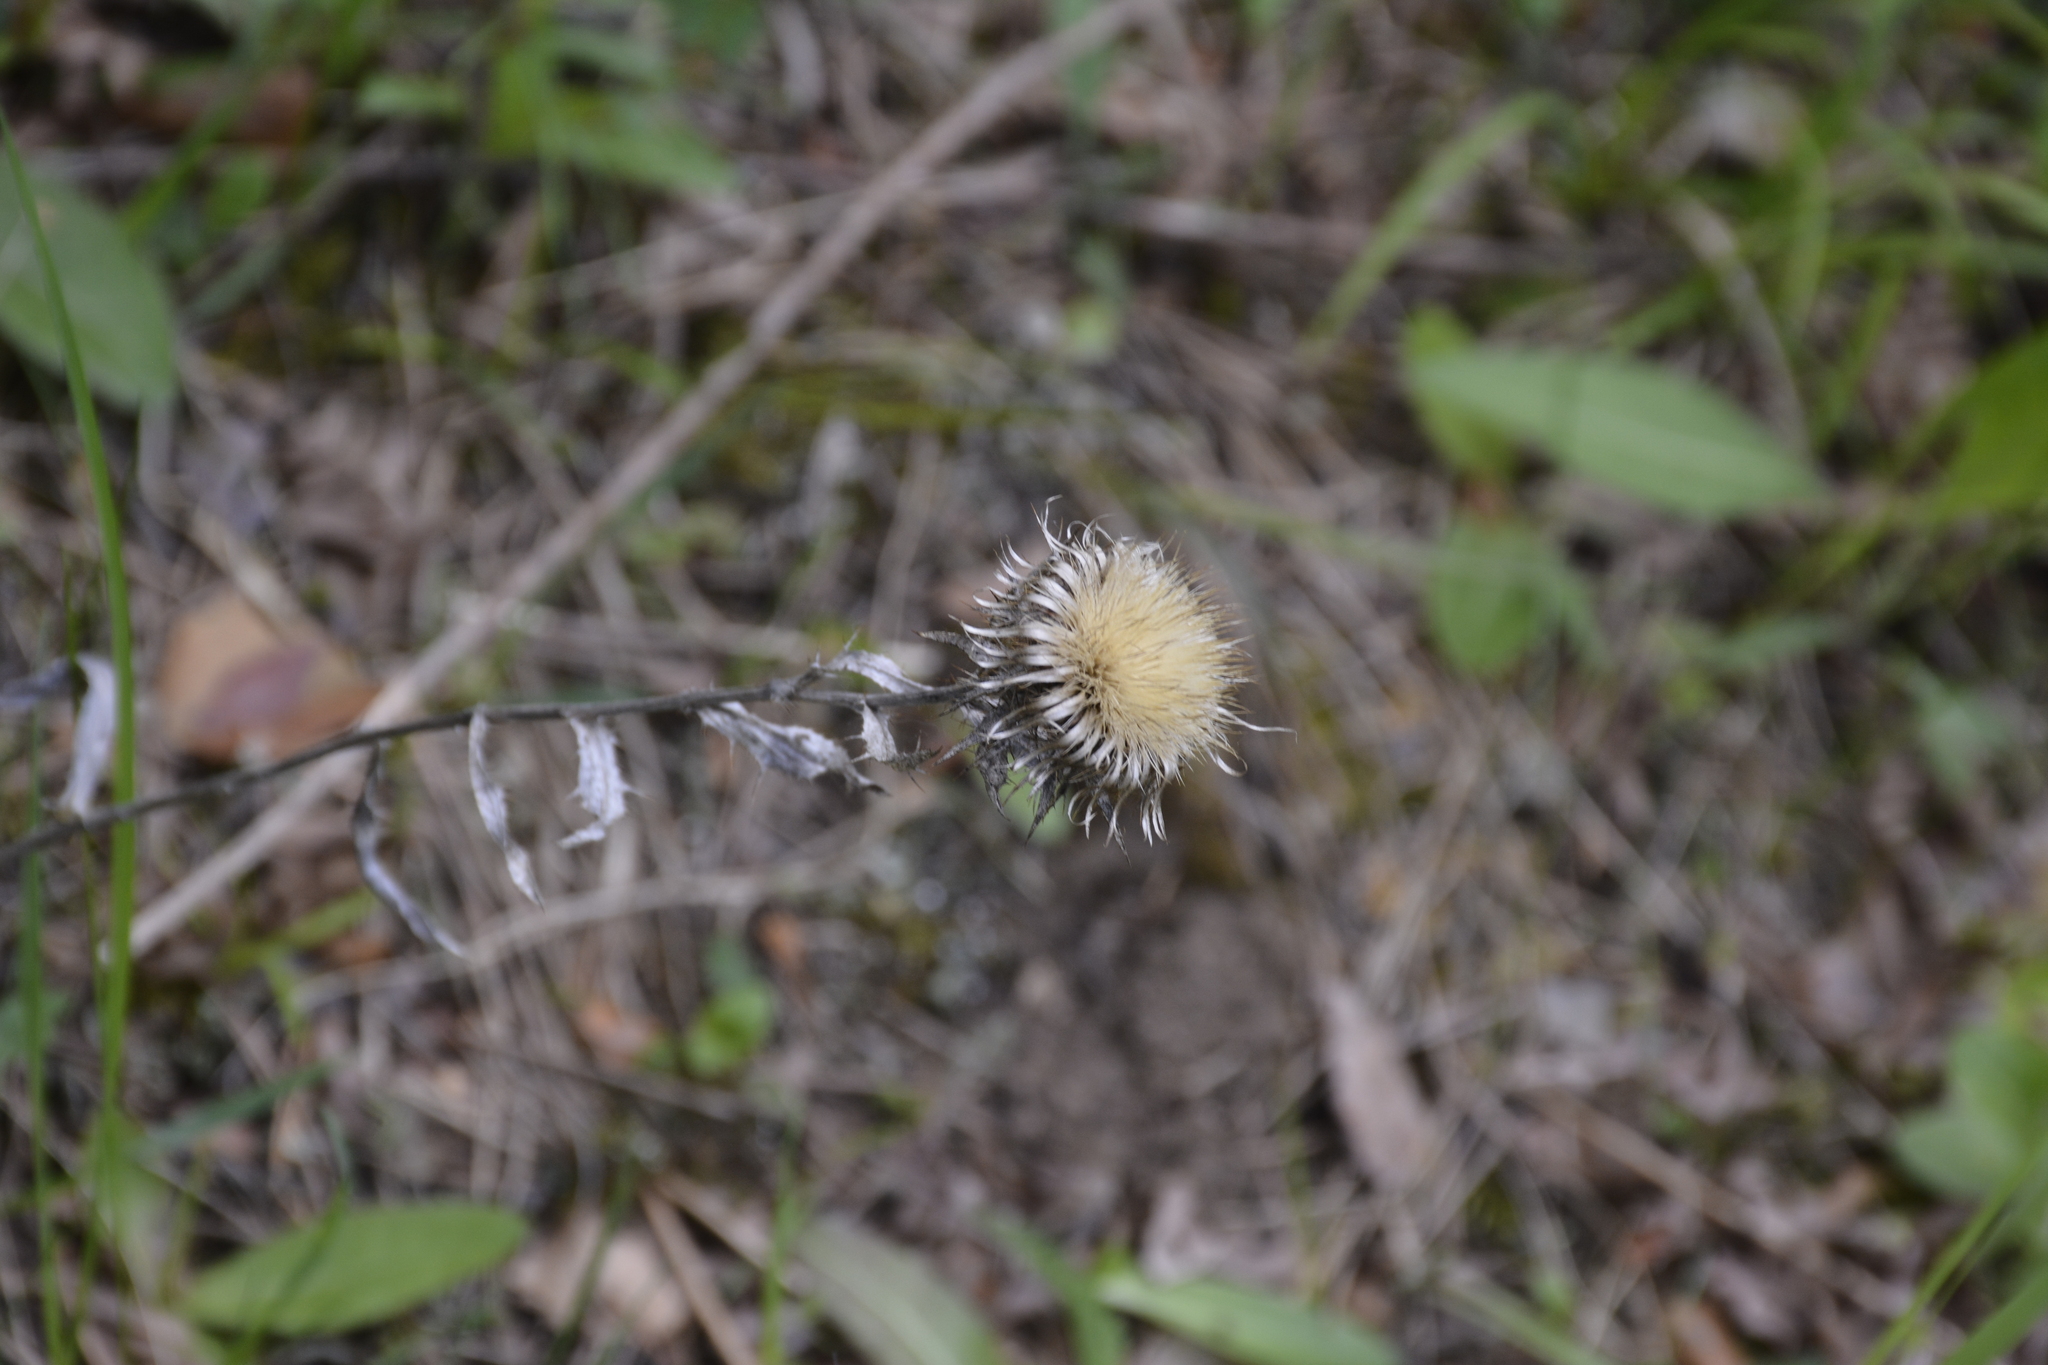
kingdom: Plantae
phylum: Tracheophyta
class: Magnoliopsida
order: Asterales
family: Asteraceae
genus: Carlina
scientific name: Carlina biebersteinii
